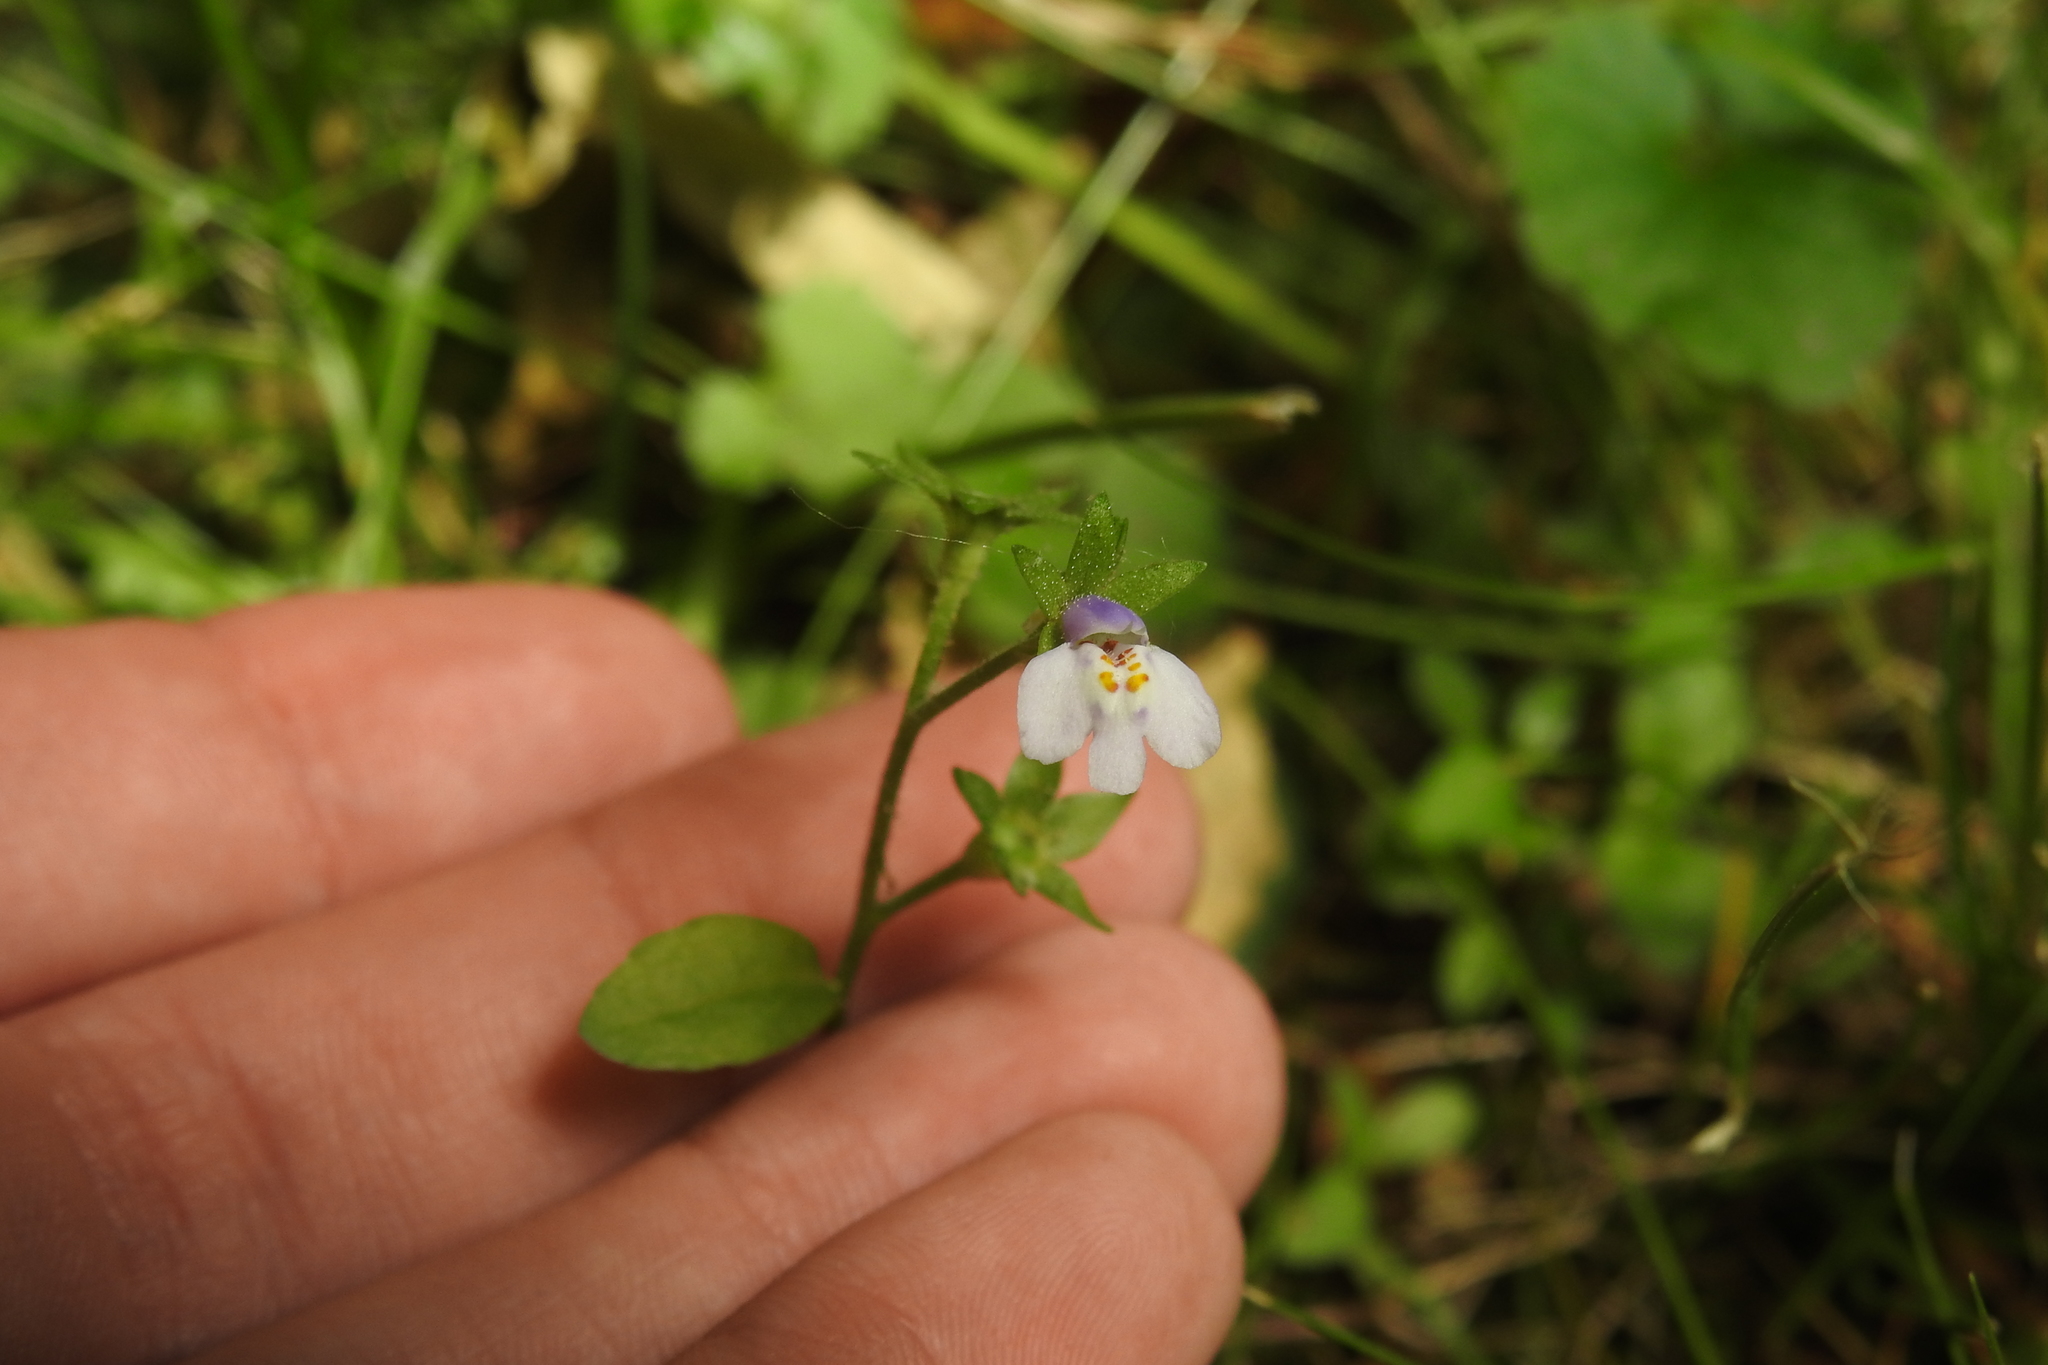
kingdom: Plantae
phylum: Tracheophyta
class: Magnoliopsida
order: Lamiales
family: Mazaceae
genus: Mazus
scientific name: Mazus pumilus
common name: Japanese mazus
